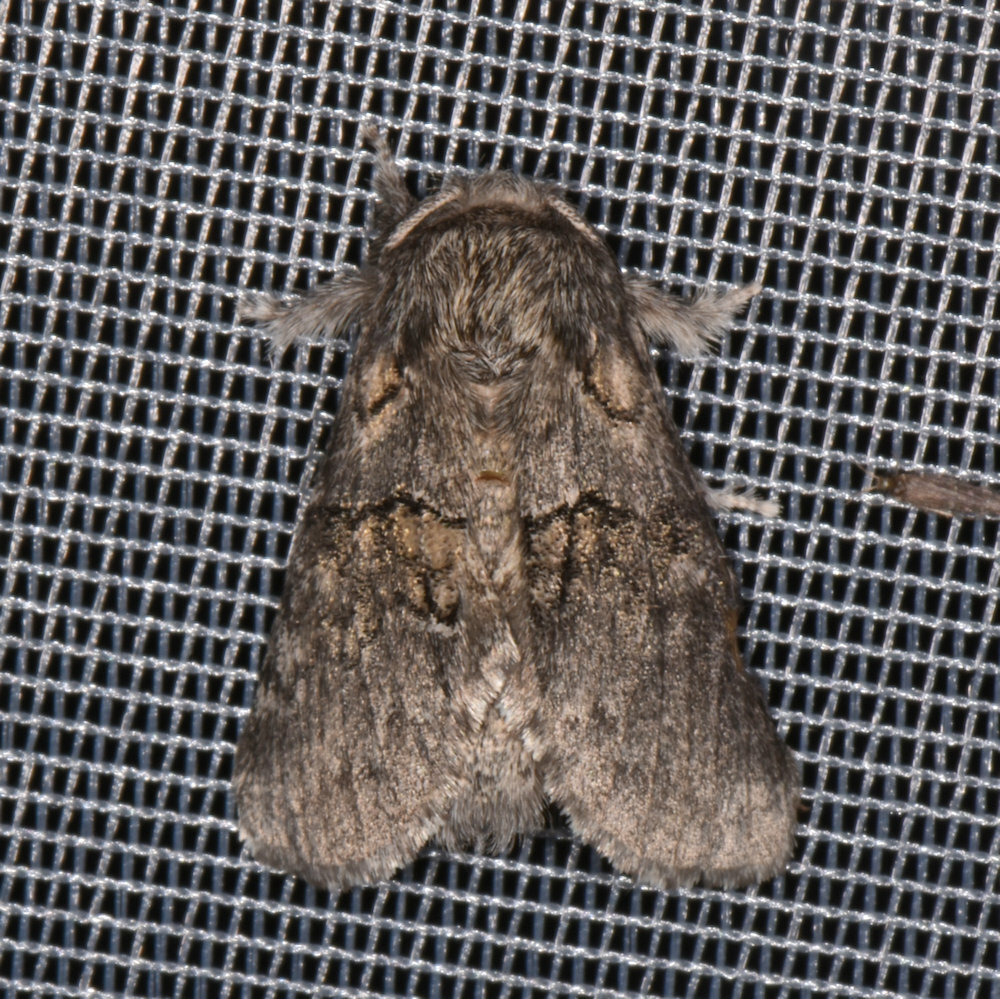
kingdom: Animalia
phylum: Arthropoda
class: Insecta
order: Lepidoptera
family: Notodontidae
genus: Gluphisia
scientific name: Gluphisia septentrionis
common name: Common gluphisia
